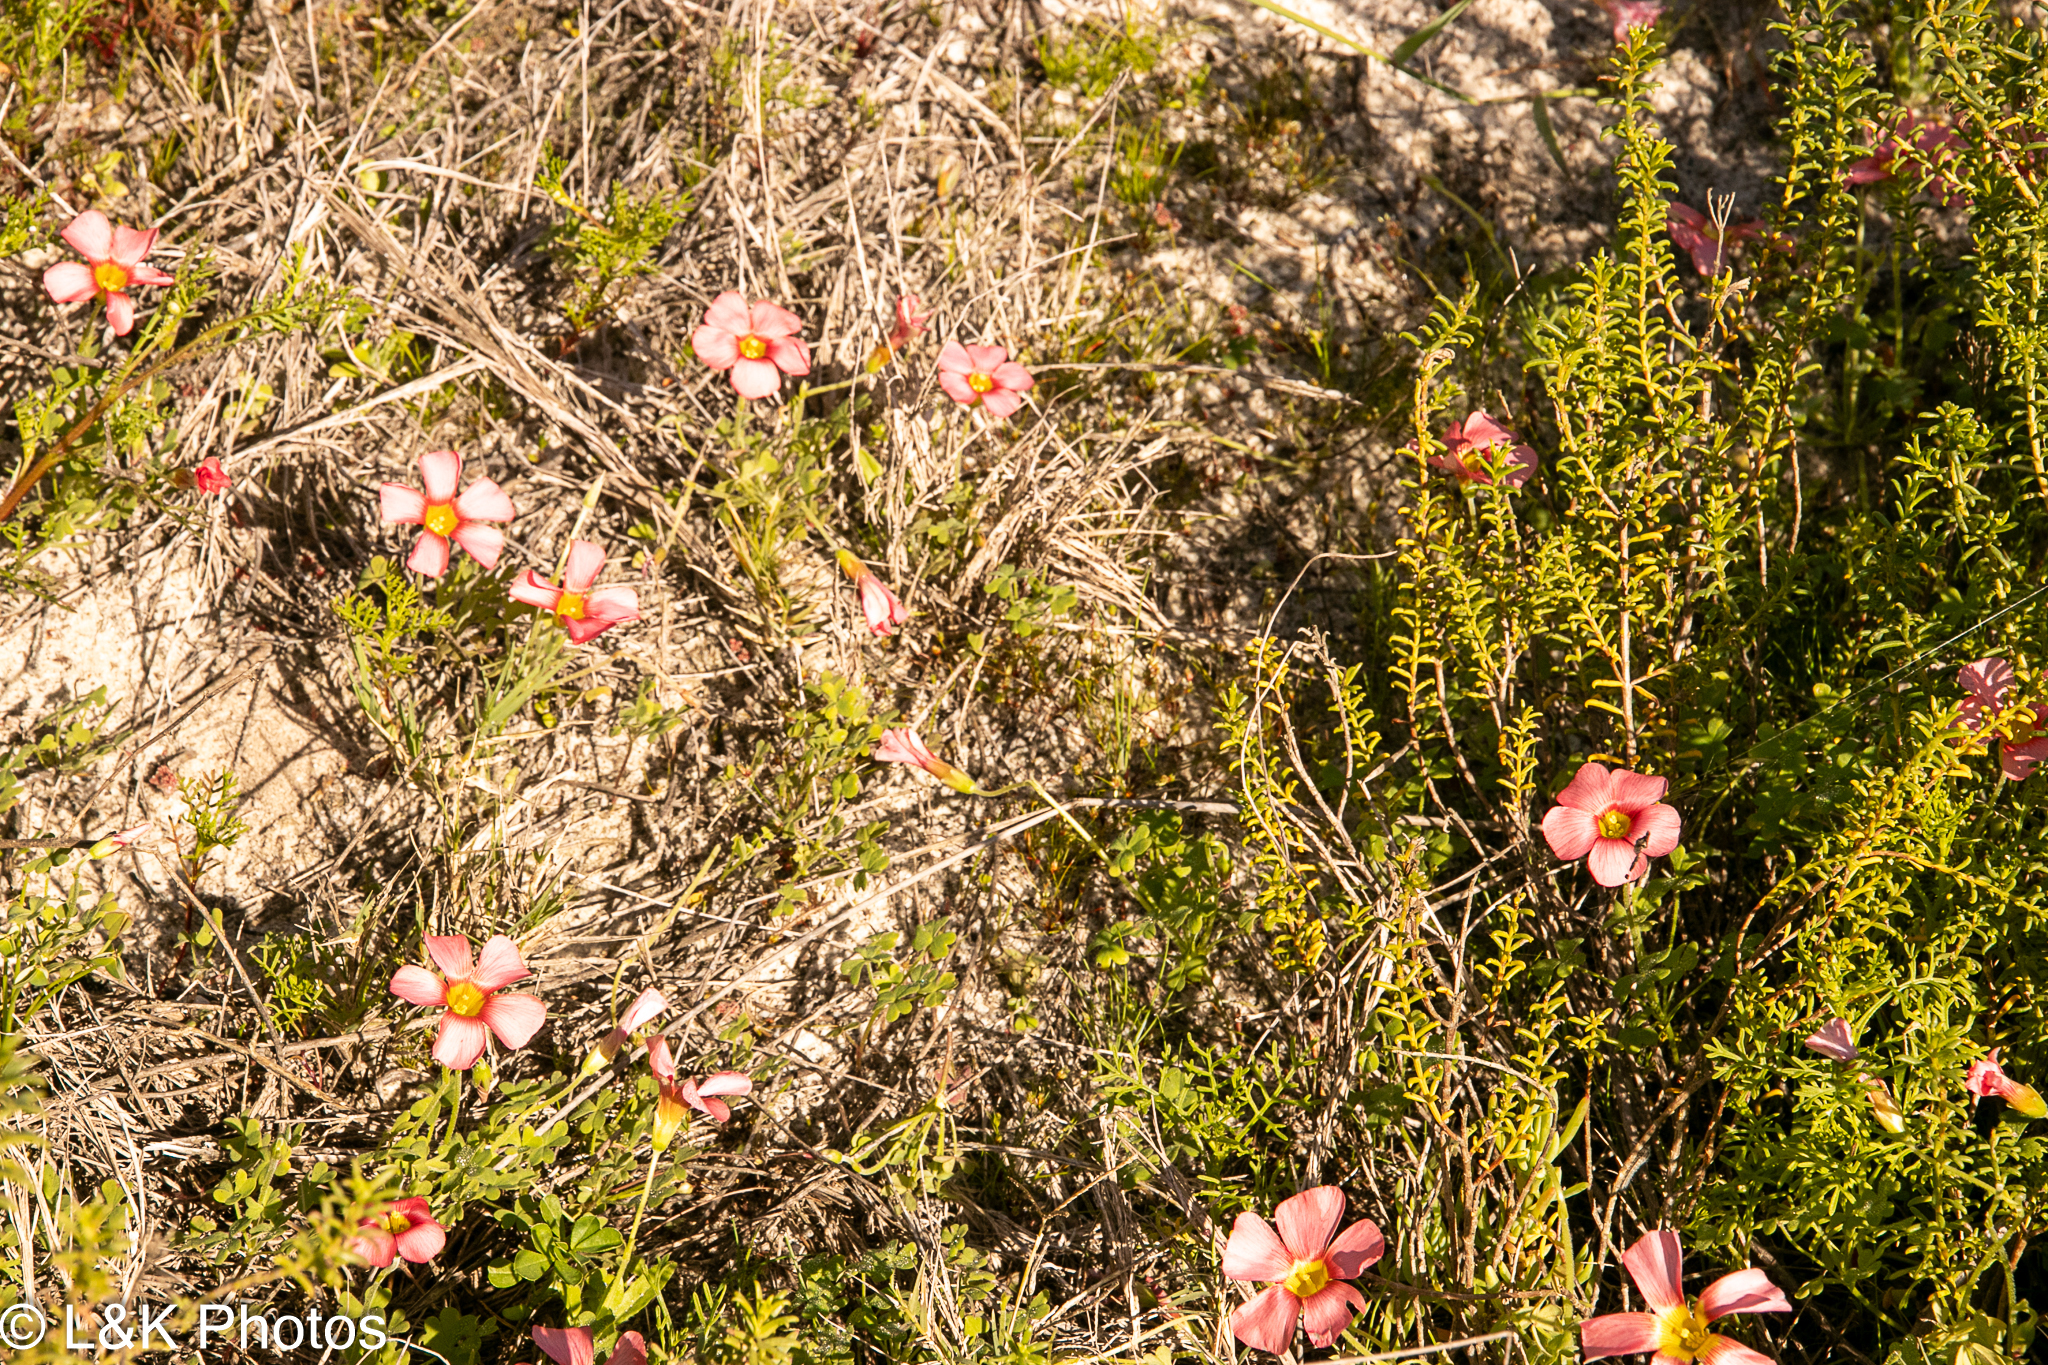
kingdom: Plantae
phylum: Tracheophyta
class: Magnoliopsida
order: Oxalidales
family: Oxalidaceae
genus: Oxalis
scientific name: Oxalis obtusa
